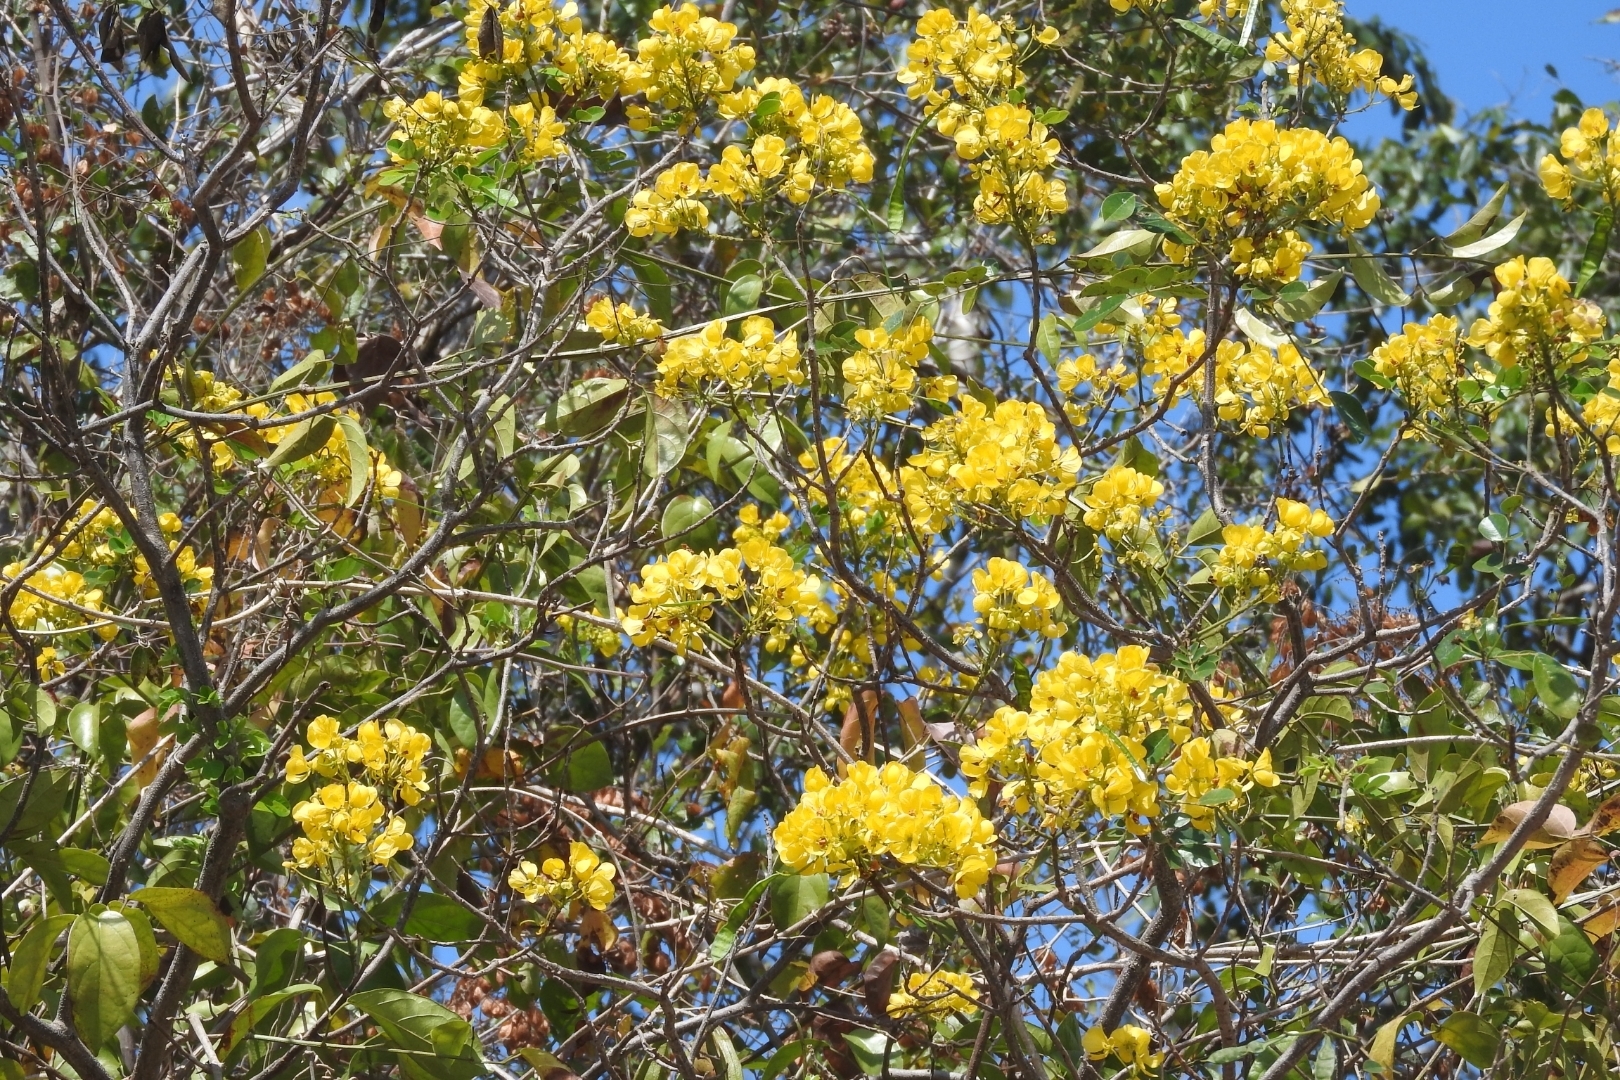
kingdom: Plantae
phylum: Tracheophyta
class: Magnoliopsida
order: Fabales
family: Fabaceae
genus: Senna
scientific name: Senna racemosa
